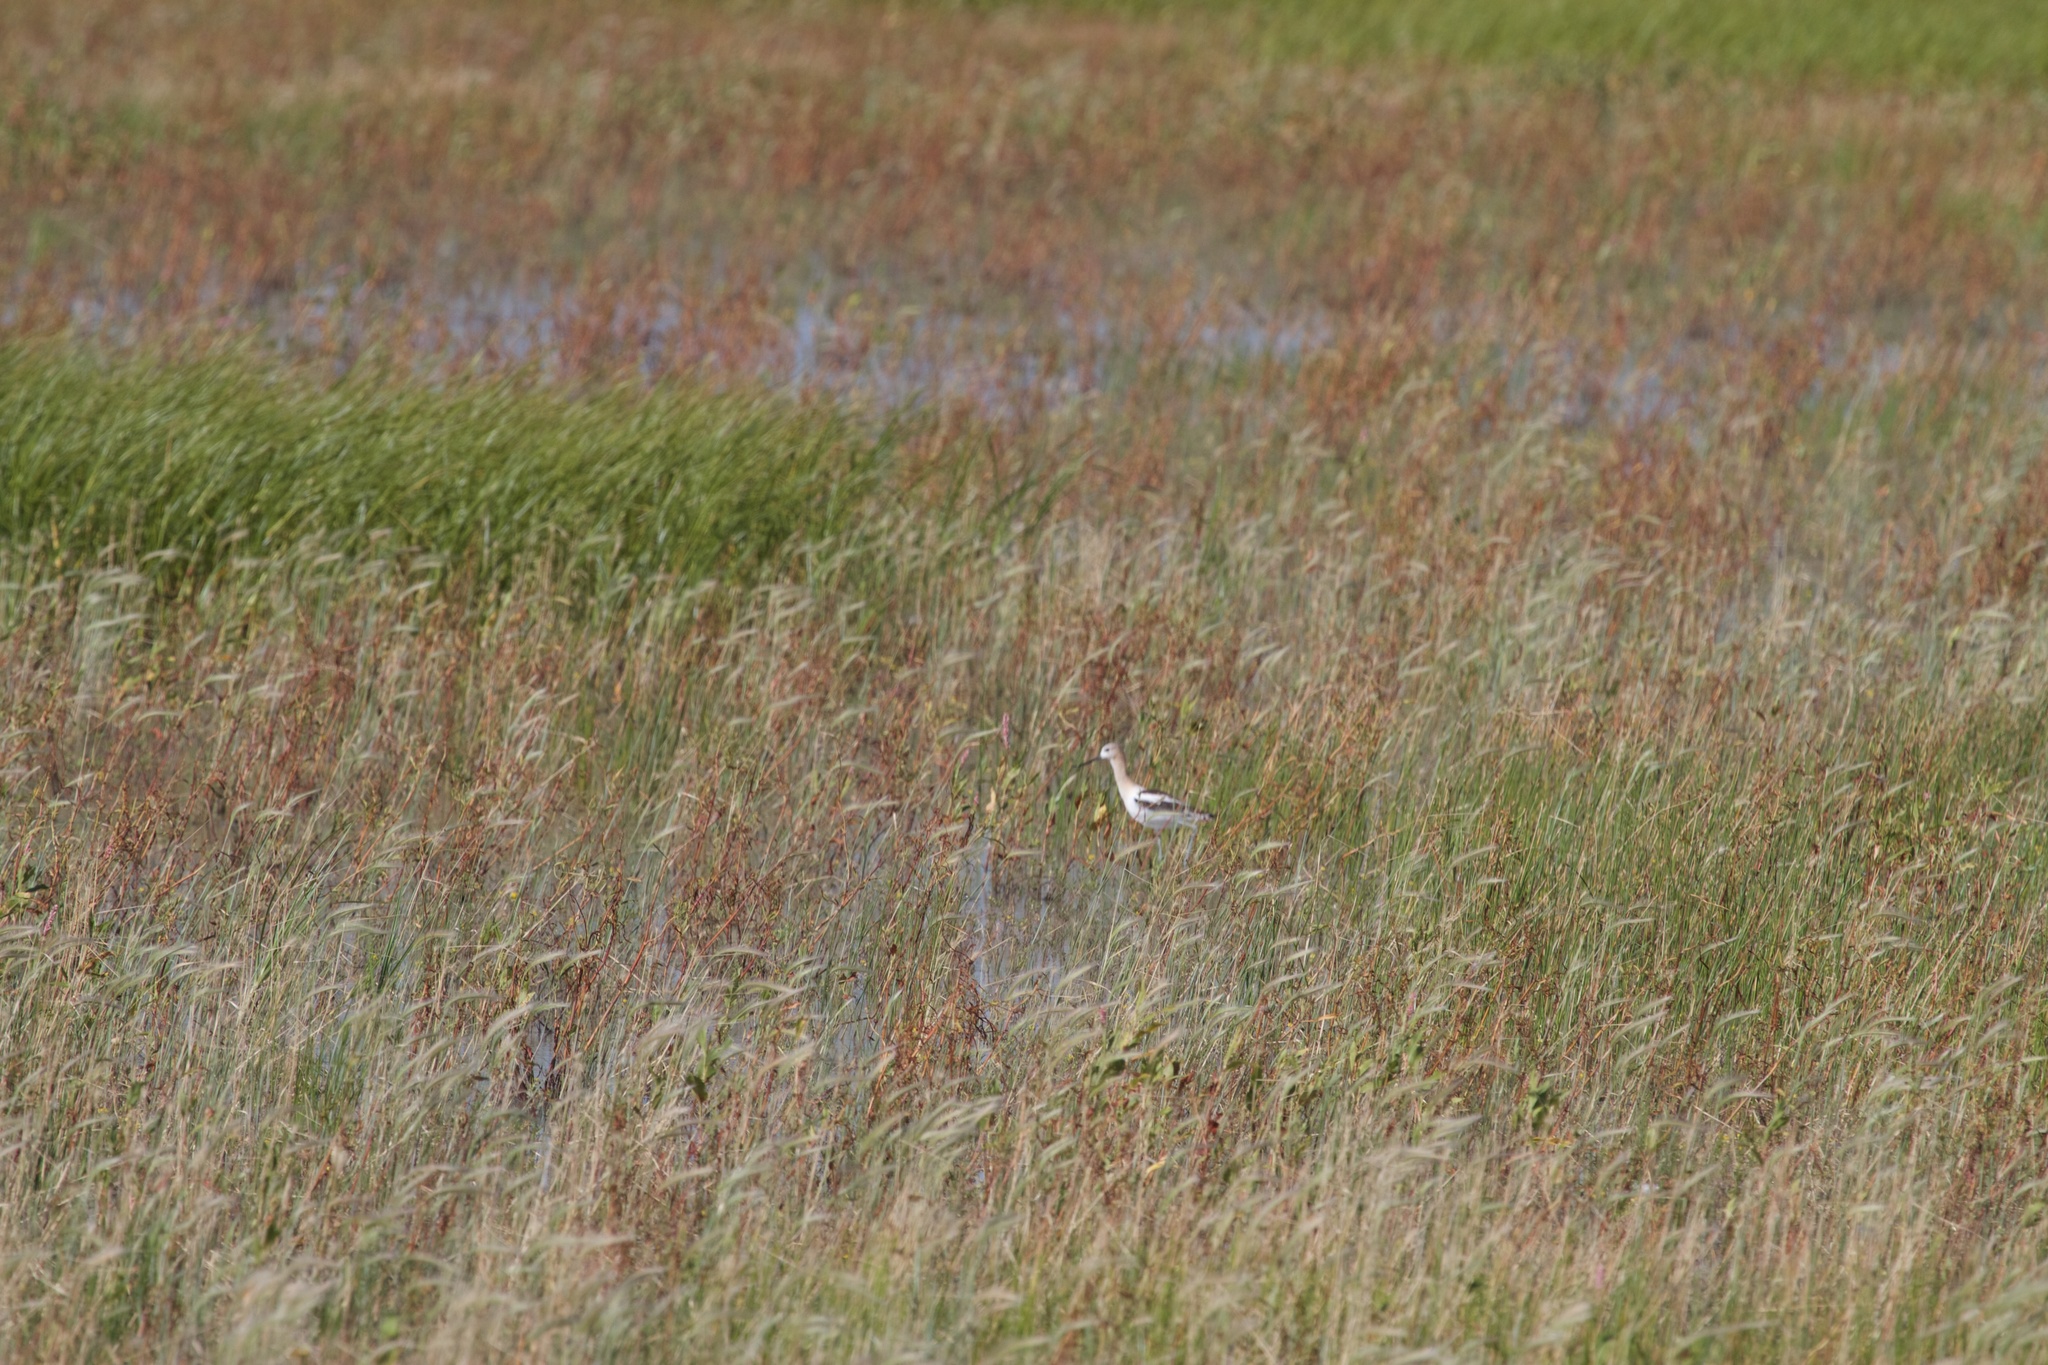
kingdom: Animalia
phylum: Chordata
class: Aves
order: Charadriiformes
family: Recurvirostridae
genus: Recurvirostra
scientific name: Recurvirostra americana
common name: American avocet
